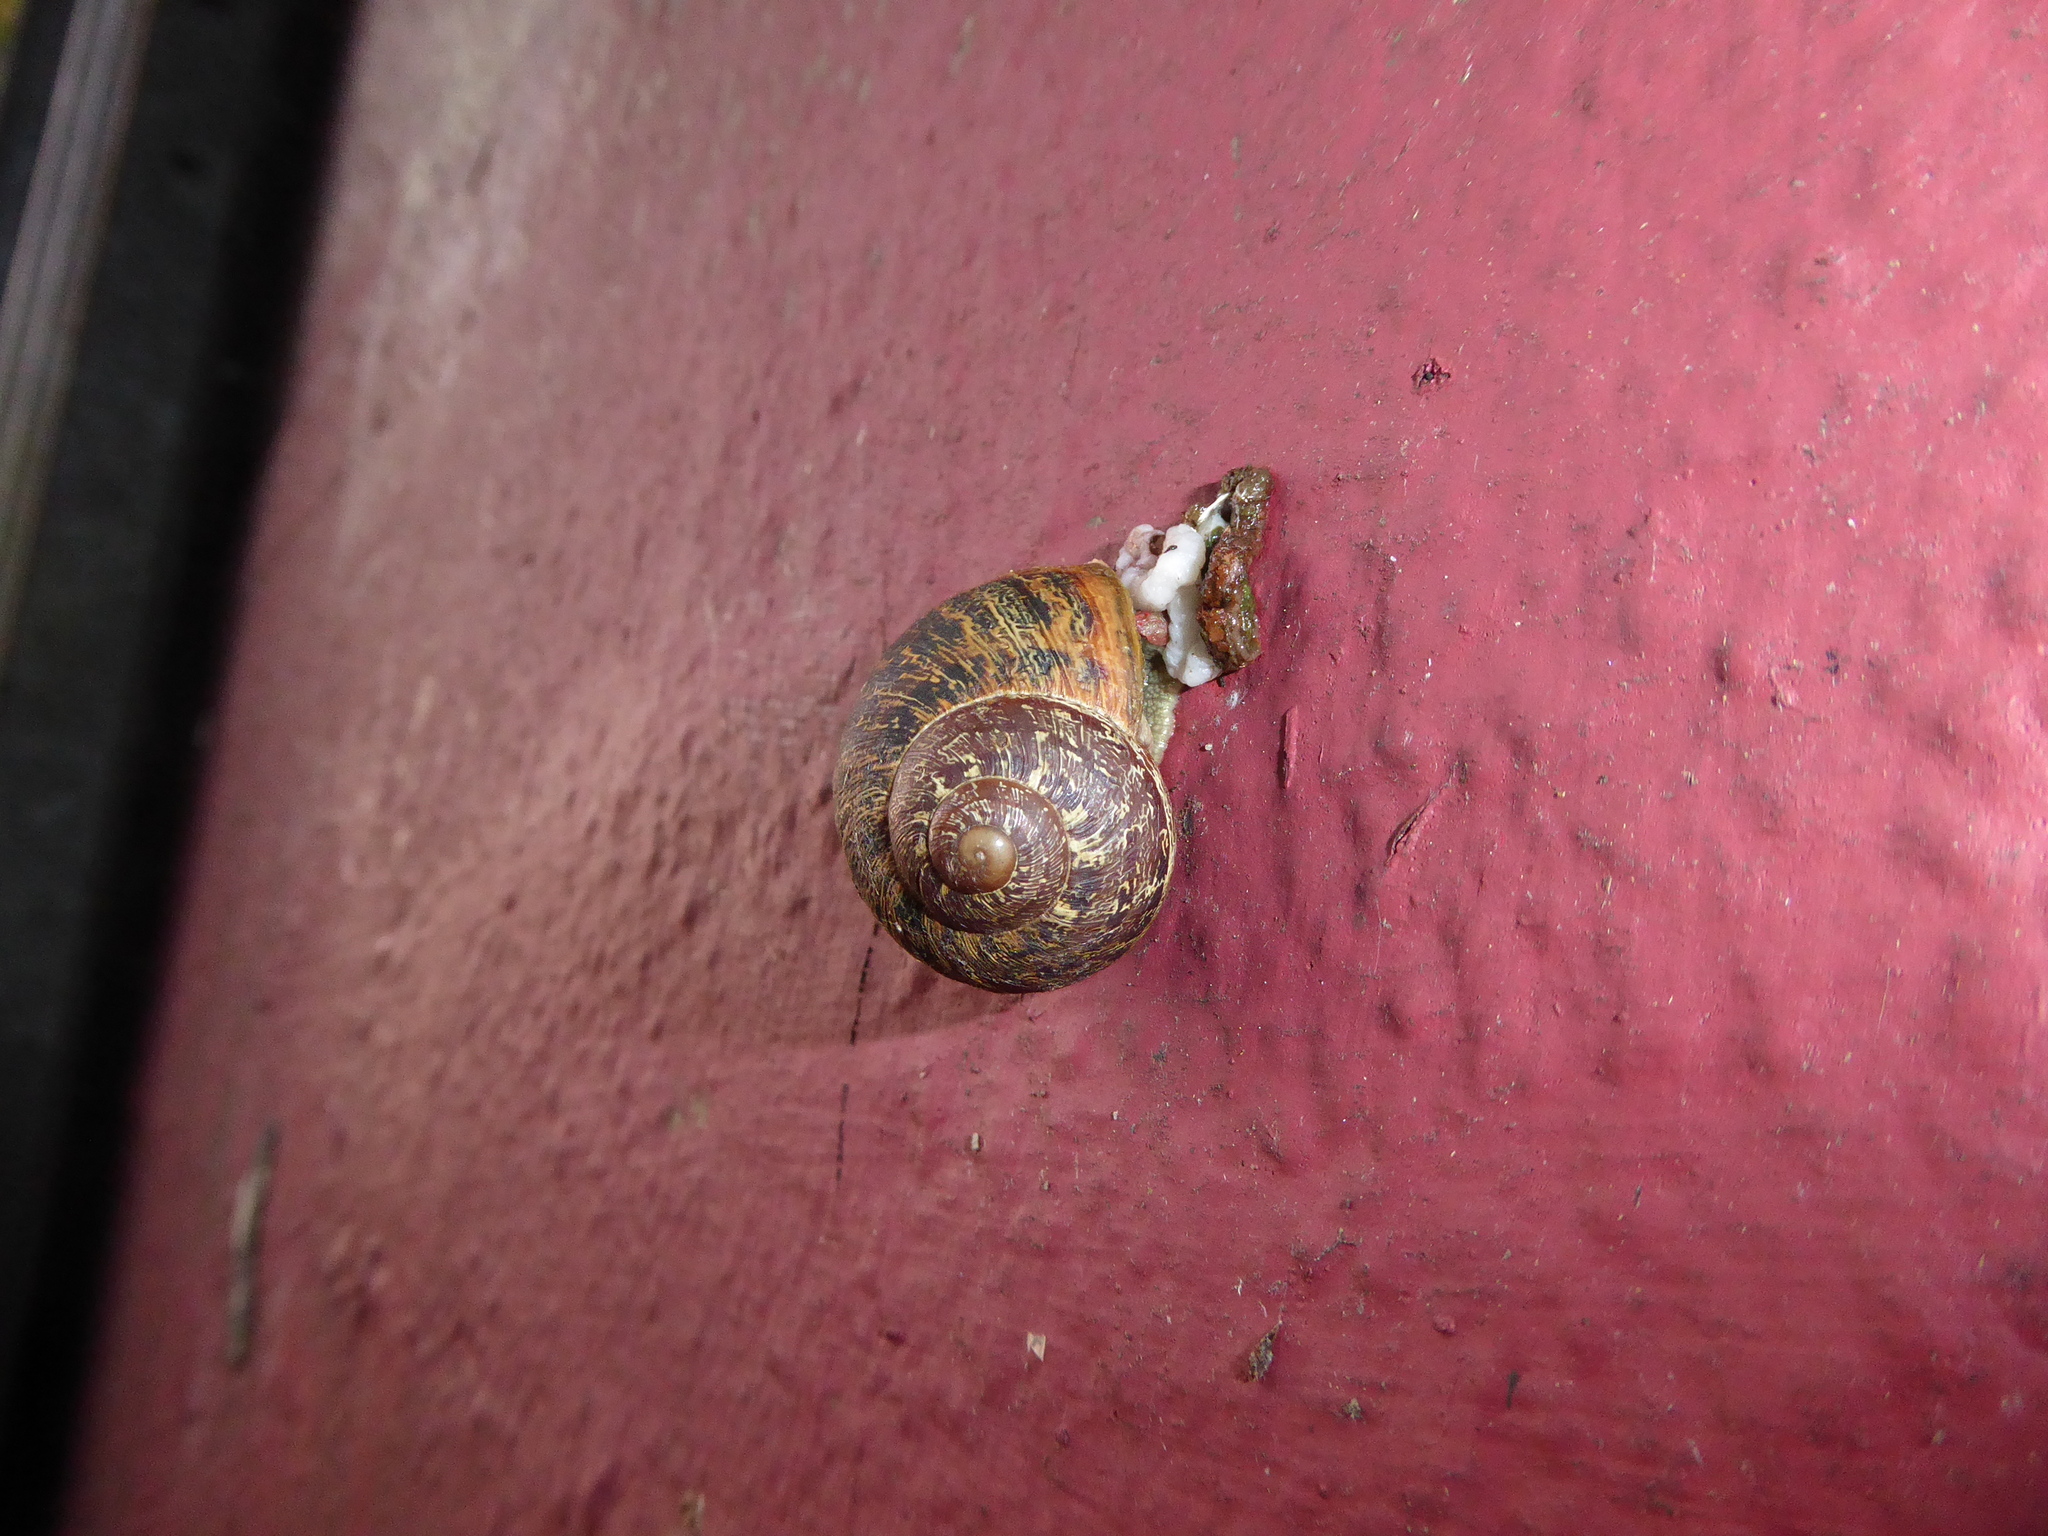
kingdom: Animalia
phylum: Mollusca
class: Gastropoda
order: Stylommatophora
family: Helicidae
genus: Cornu
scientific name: Cornu aspersum
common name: Brown garden snail
